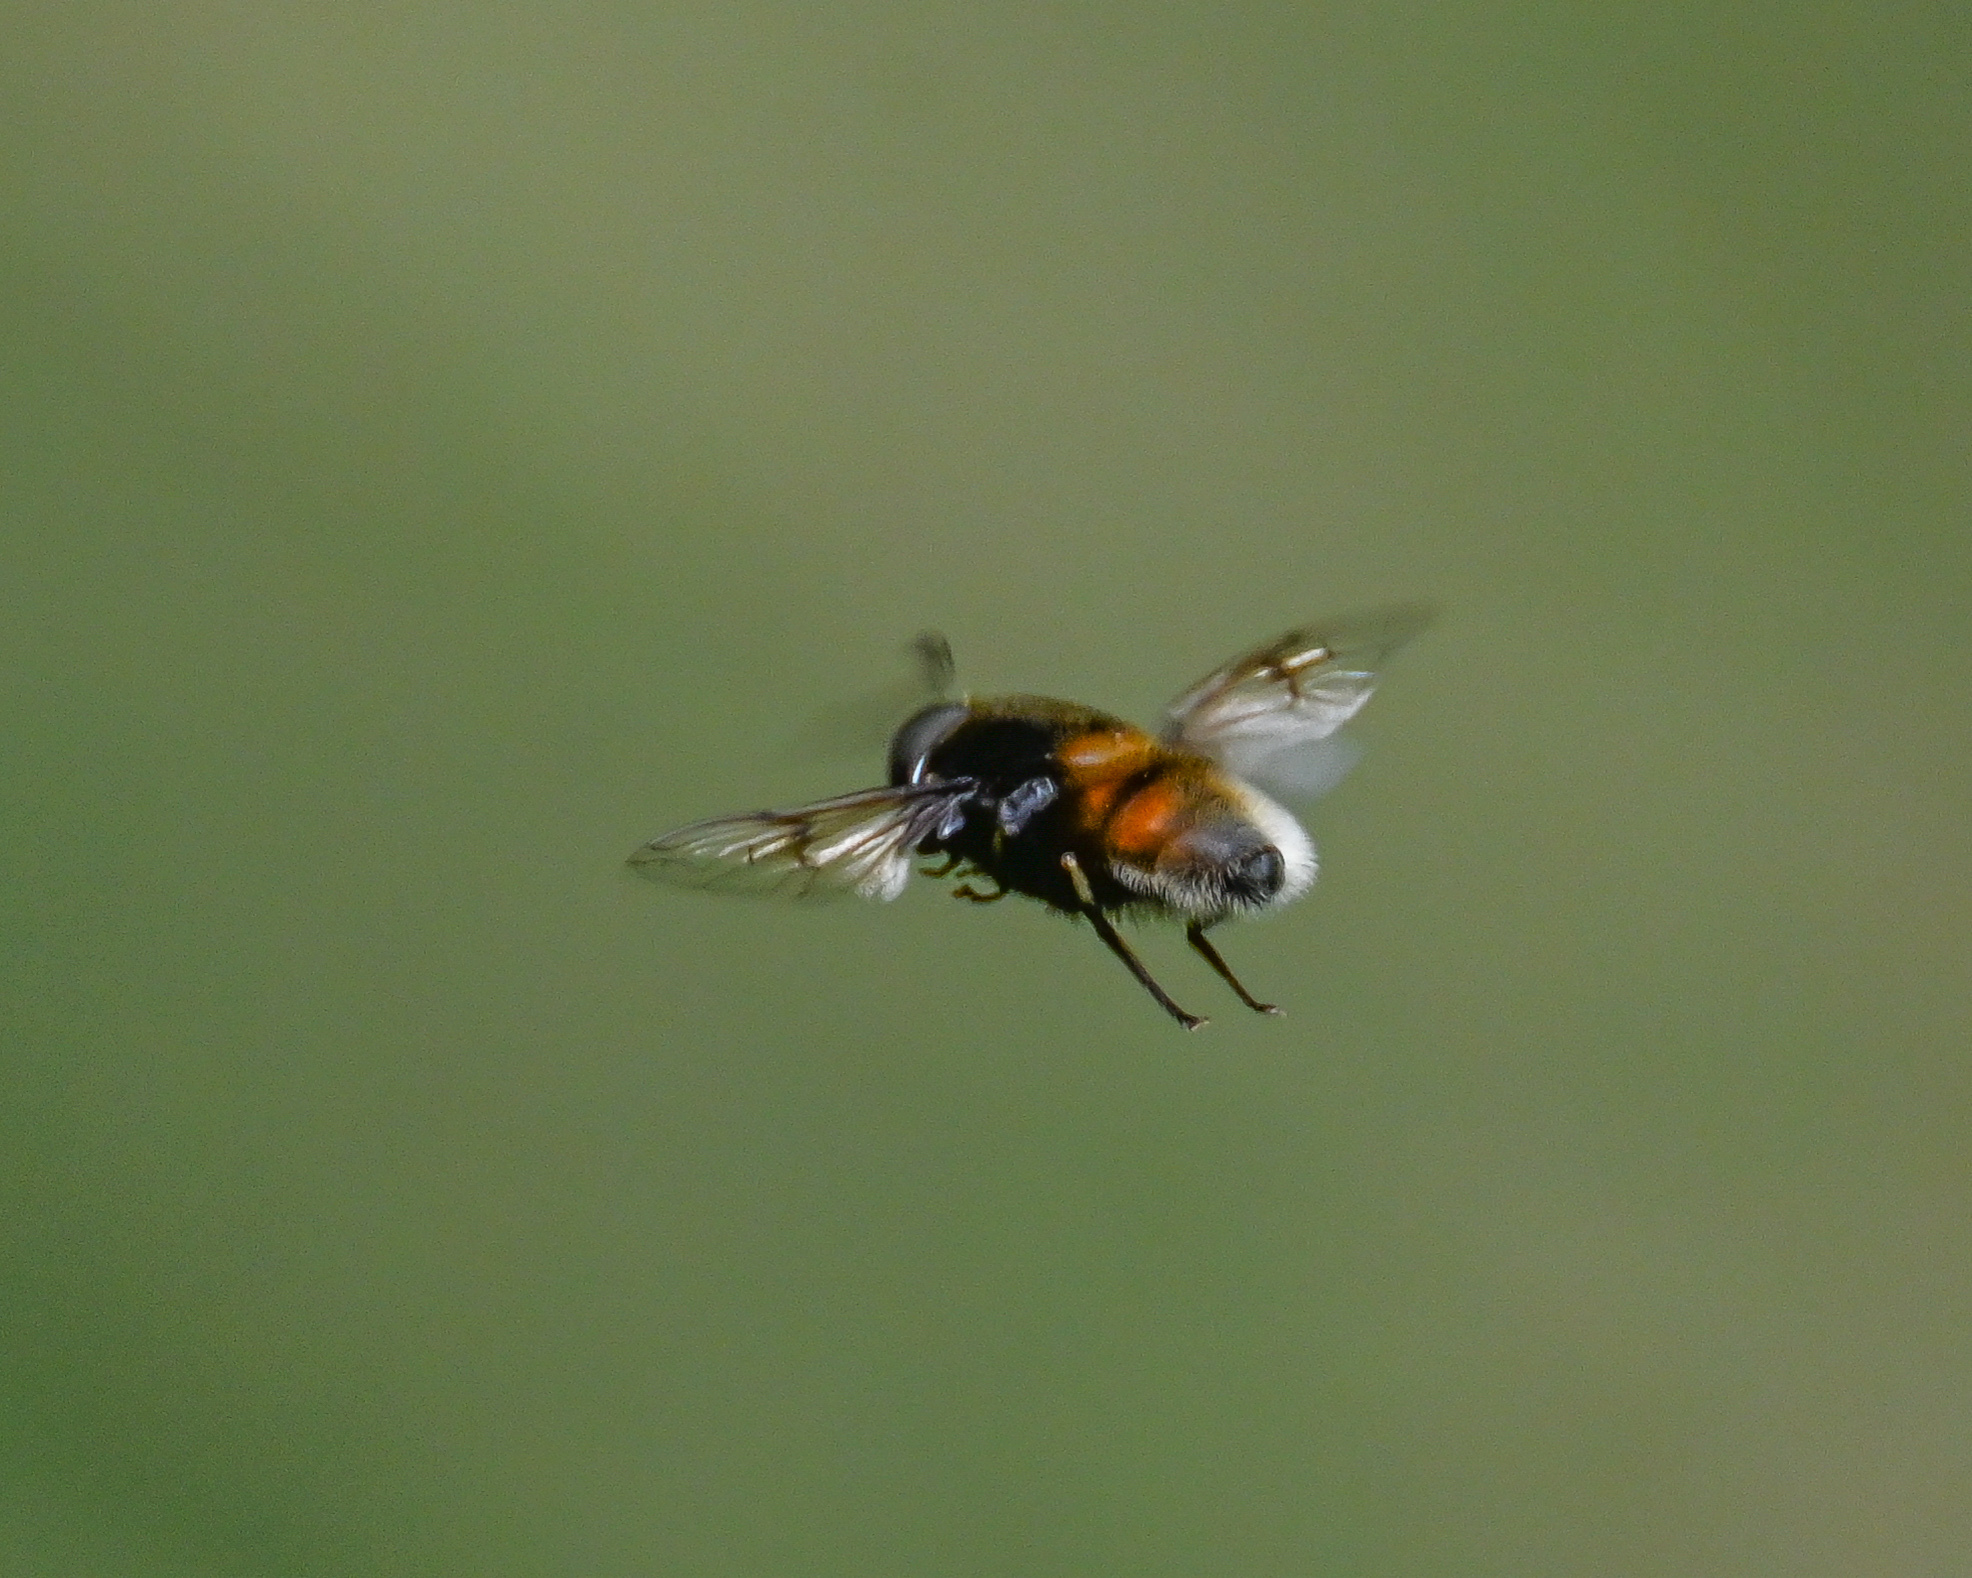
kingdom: Animalia
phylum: Arthropoda
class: Insecta
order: Diptera
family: Syrphidae
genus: Eristalis
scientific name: Eristalis intricaria
